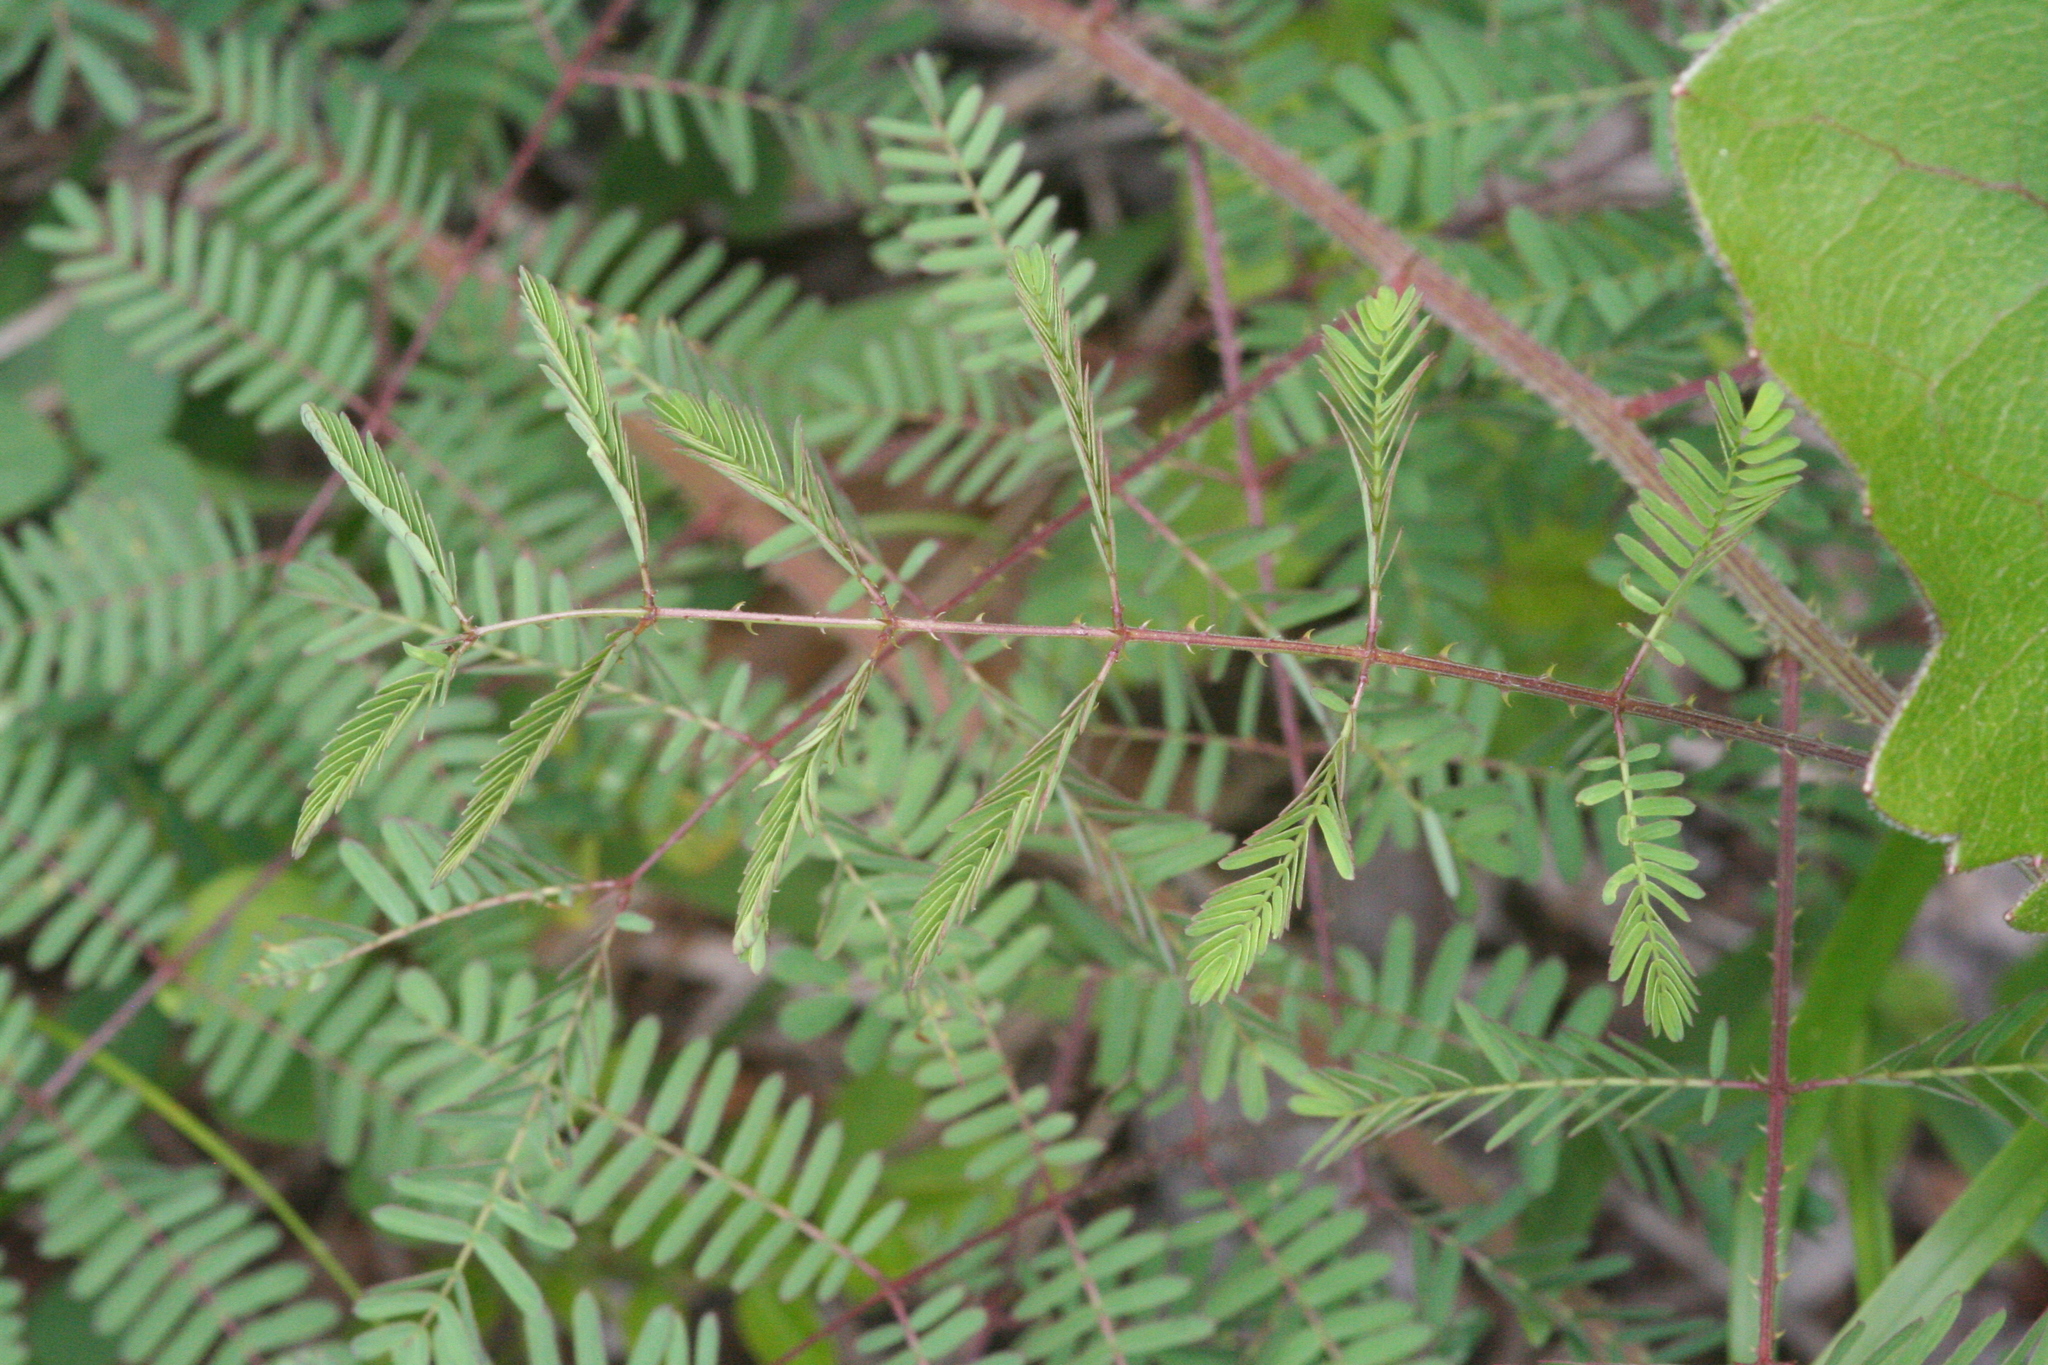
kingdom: Plantae
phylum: Tracheophyta
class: Magnoliopsida
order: Fabales
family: Fabaceae
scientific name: Fabaceae
